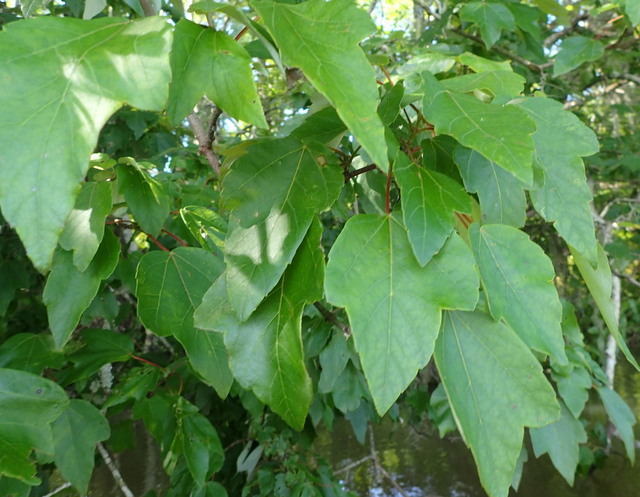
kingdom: Plantae
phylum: Tracheophyta
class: Magnoliopsida
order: Sapindales
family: Sapindaceae
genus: Acer
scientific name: Acer rubrum
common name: Red maple
